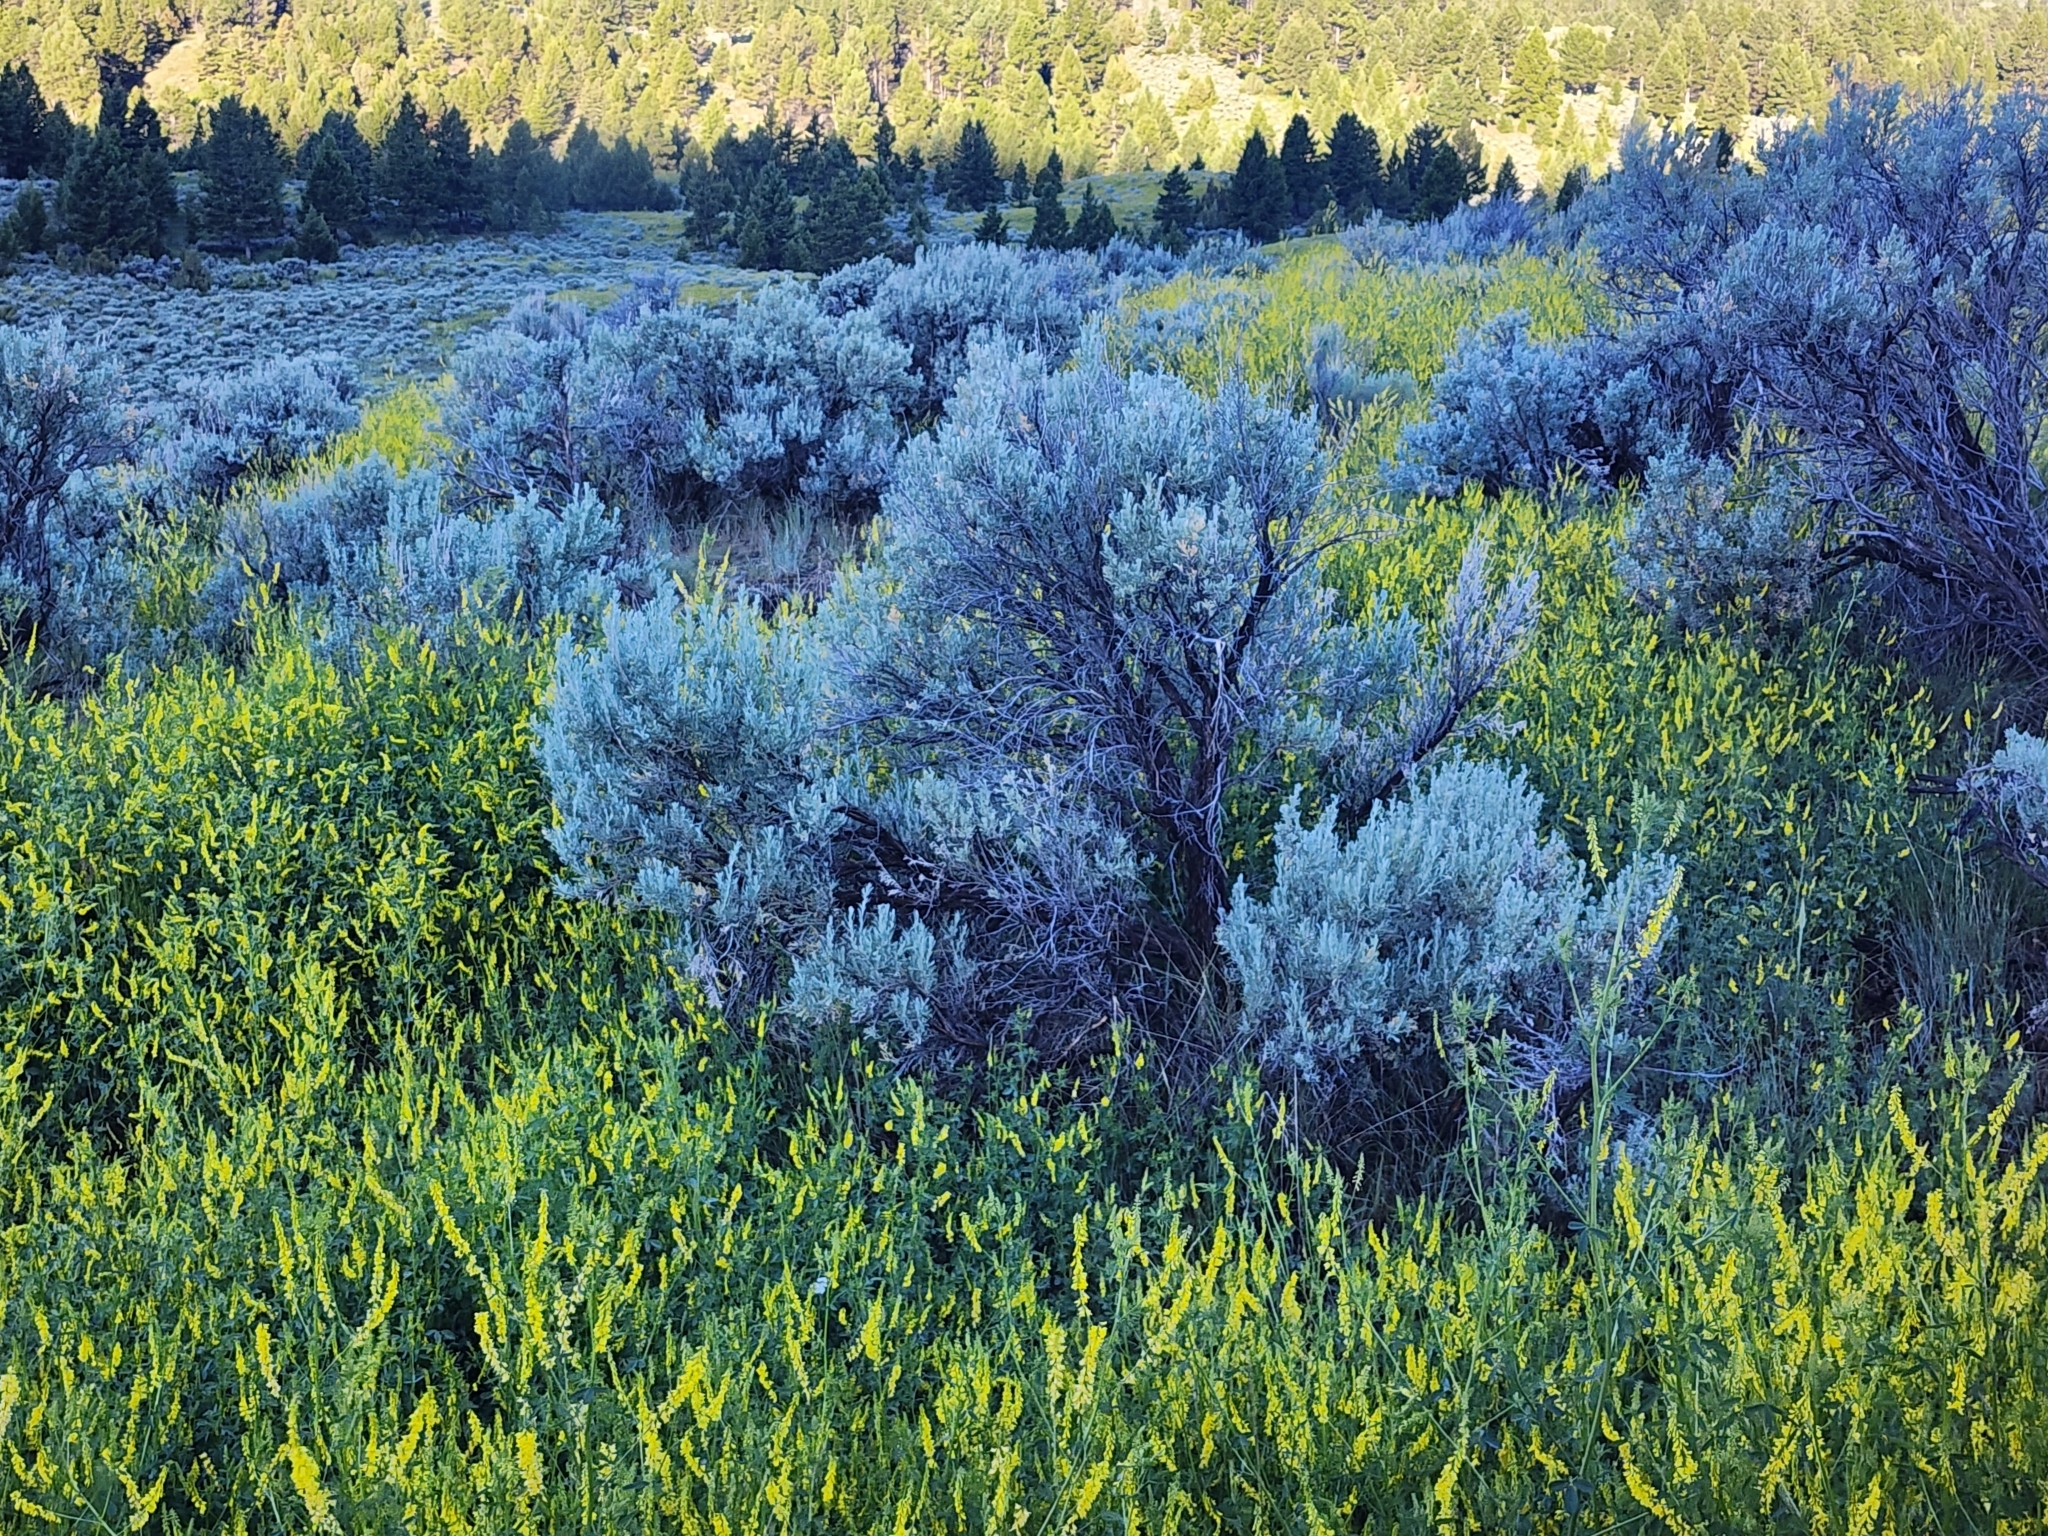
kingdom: Plantae
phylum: Tracheophyta
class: Magnoliopsida
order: Asterales
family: Asteraceae
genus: Artemisia
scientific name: Artemisia tridentata
